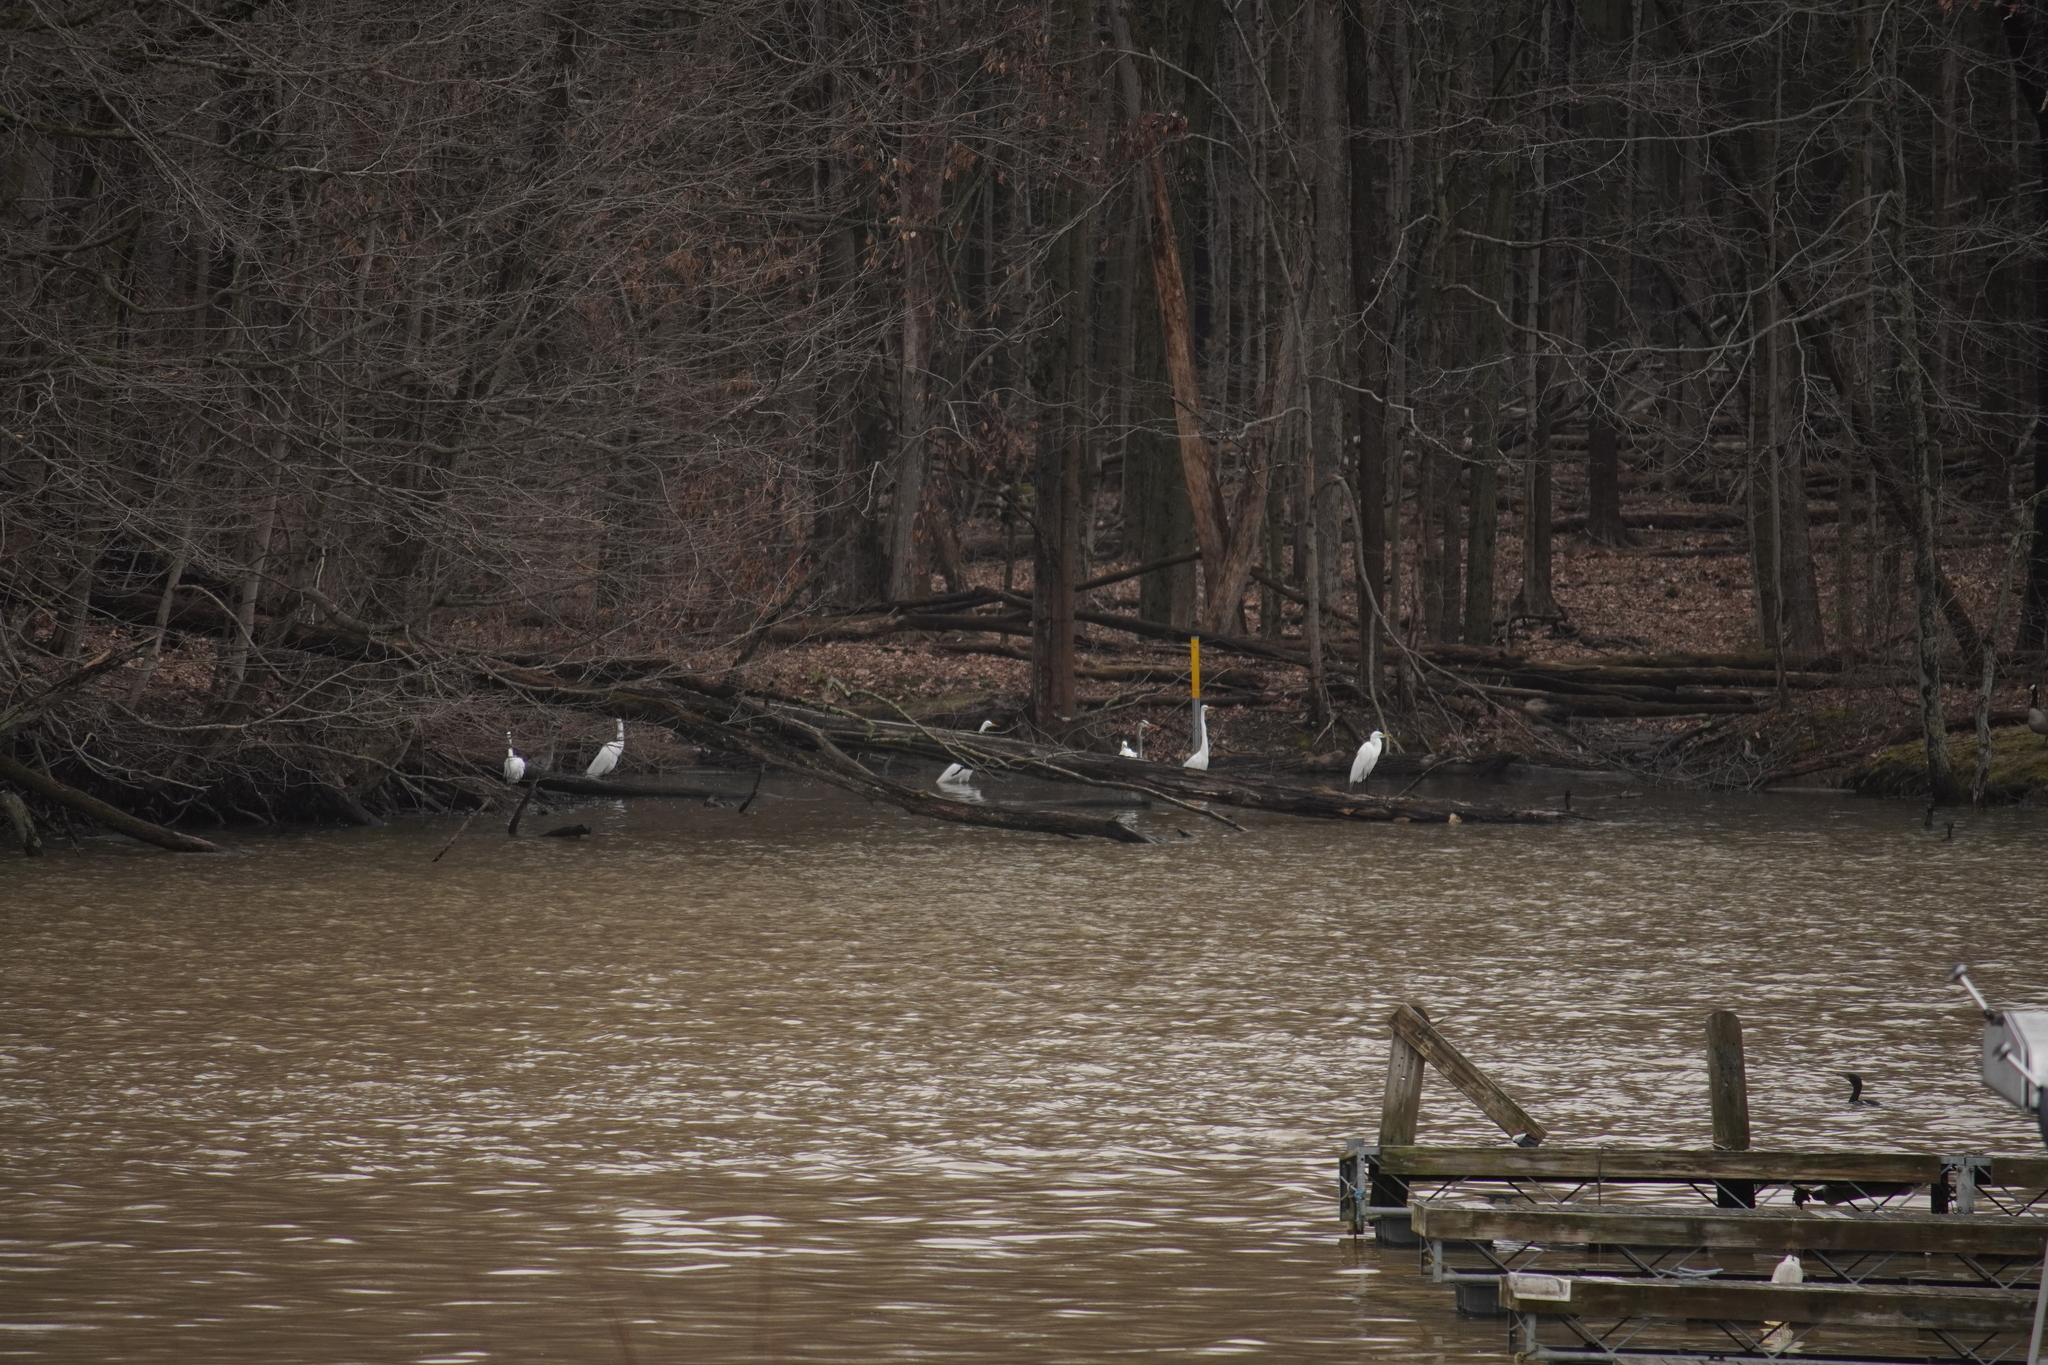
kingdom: Animalia
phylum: Chordata
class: Aves
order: Pelecaniformes
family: Ardeidae
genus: Ardea
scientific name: Ardea alba
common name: Great egret
